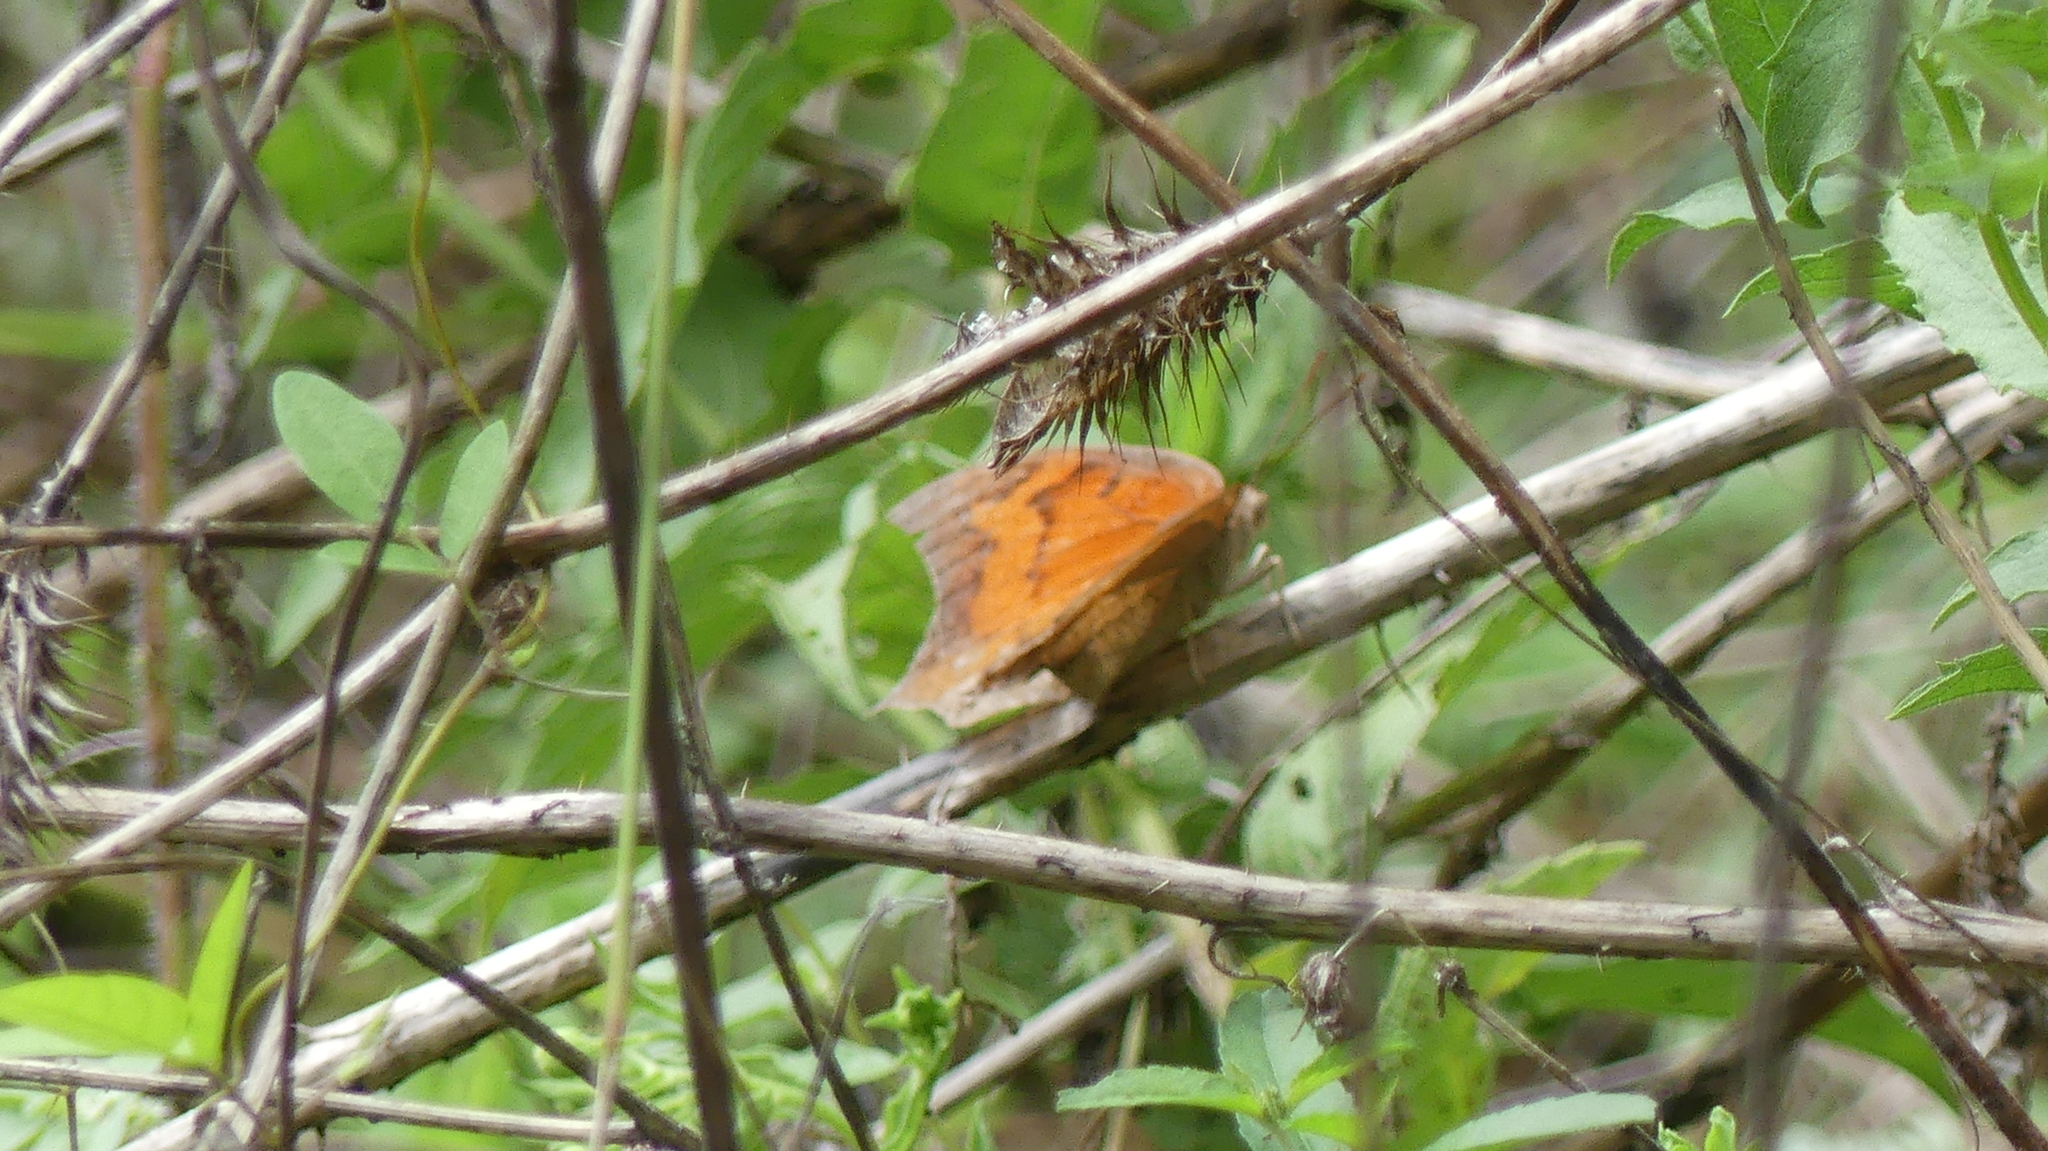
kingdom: Animalia
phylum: Arthropoda
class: Insecta
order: Lepidoptera
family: Nymphalidae
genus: Anaea
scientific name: Anaea andria
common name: Goatweed leafwing
